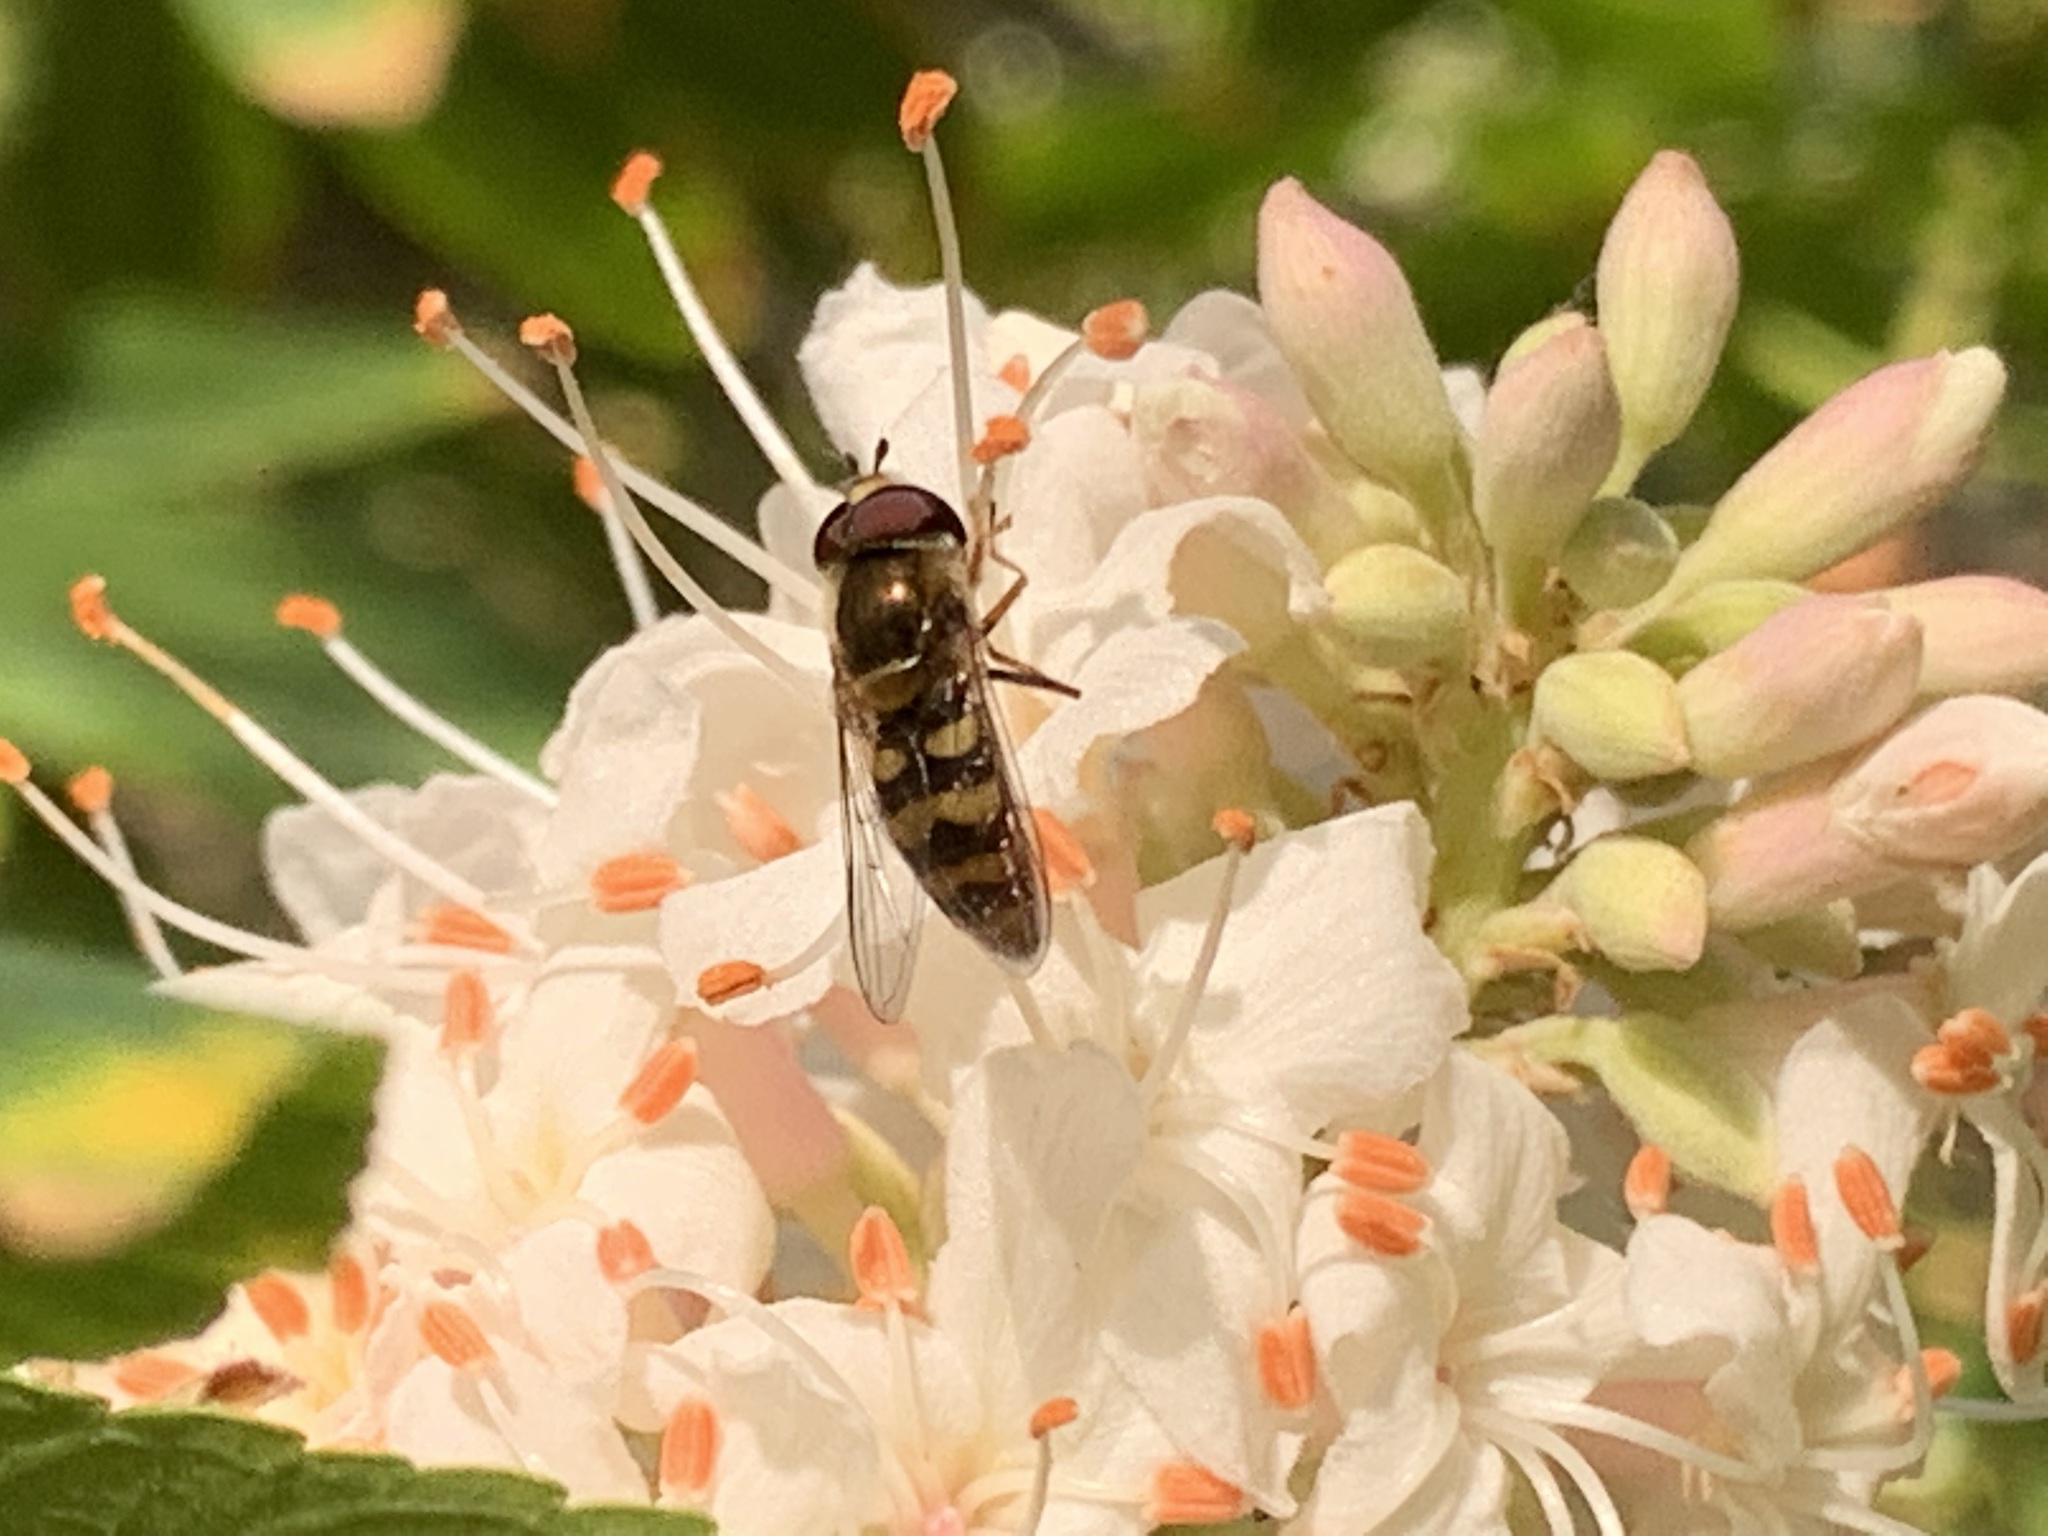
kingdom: Animalia
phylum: Arthropoda
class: Insecta
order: Diptera
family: Syrphidae
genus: Eupeodes
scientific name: Eupeodes fumipennis
